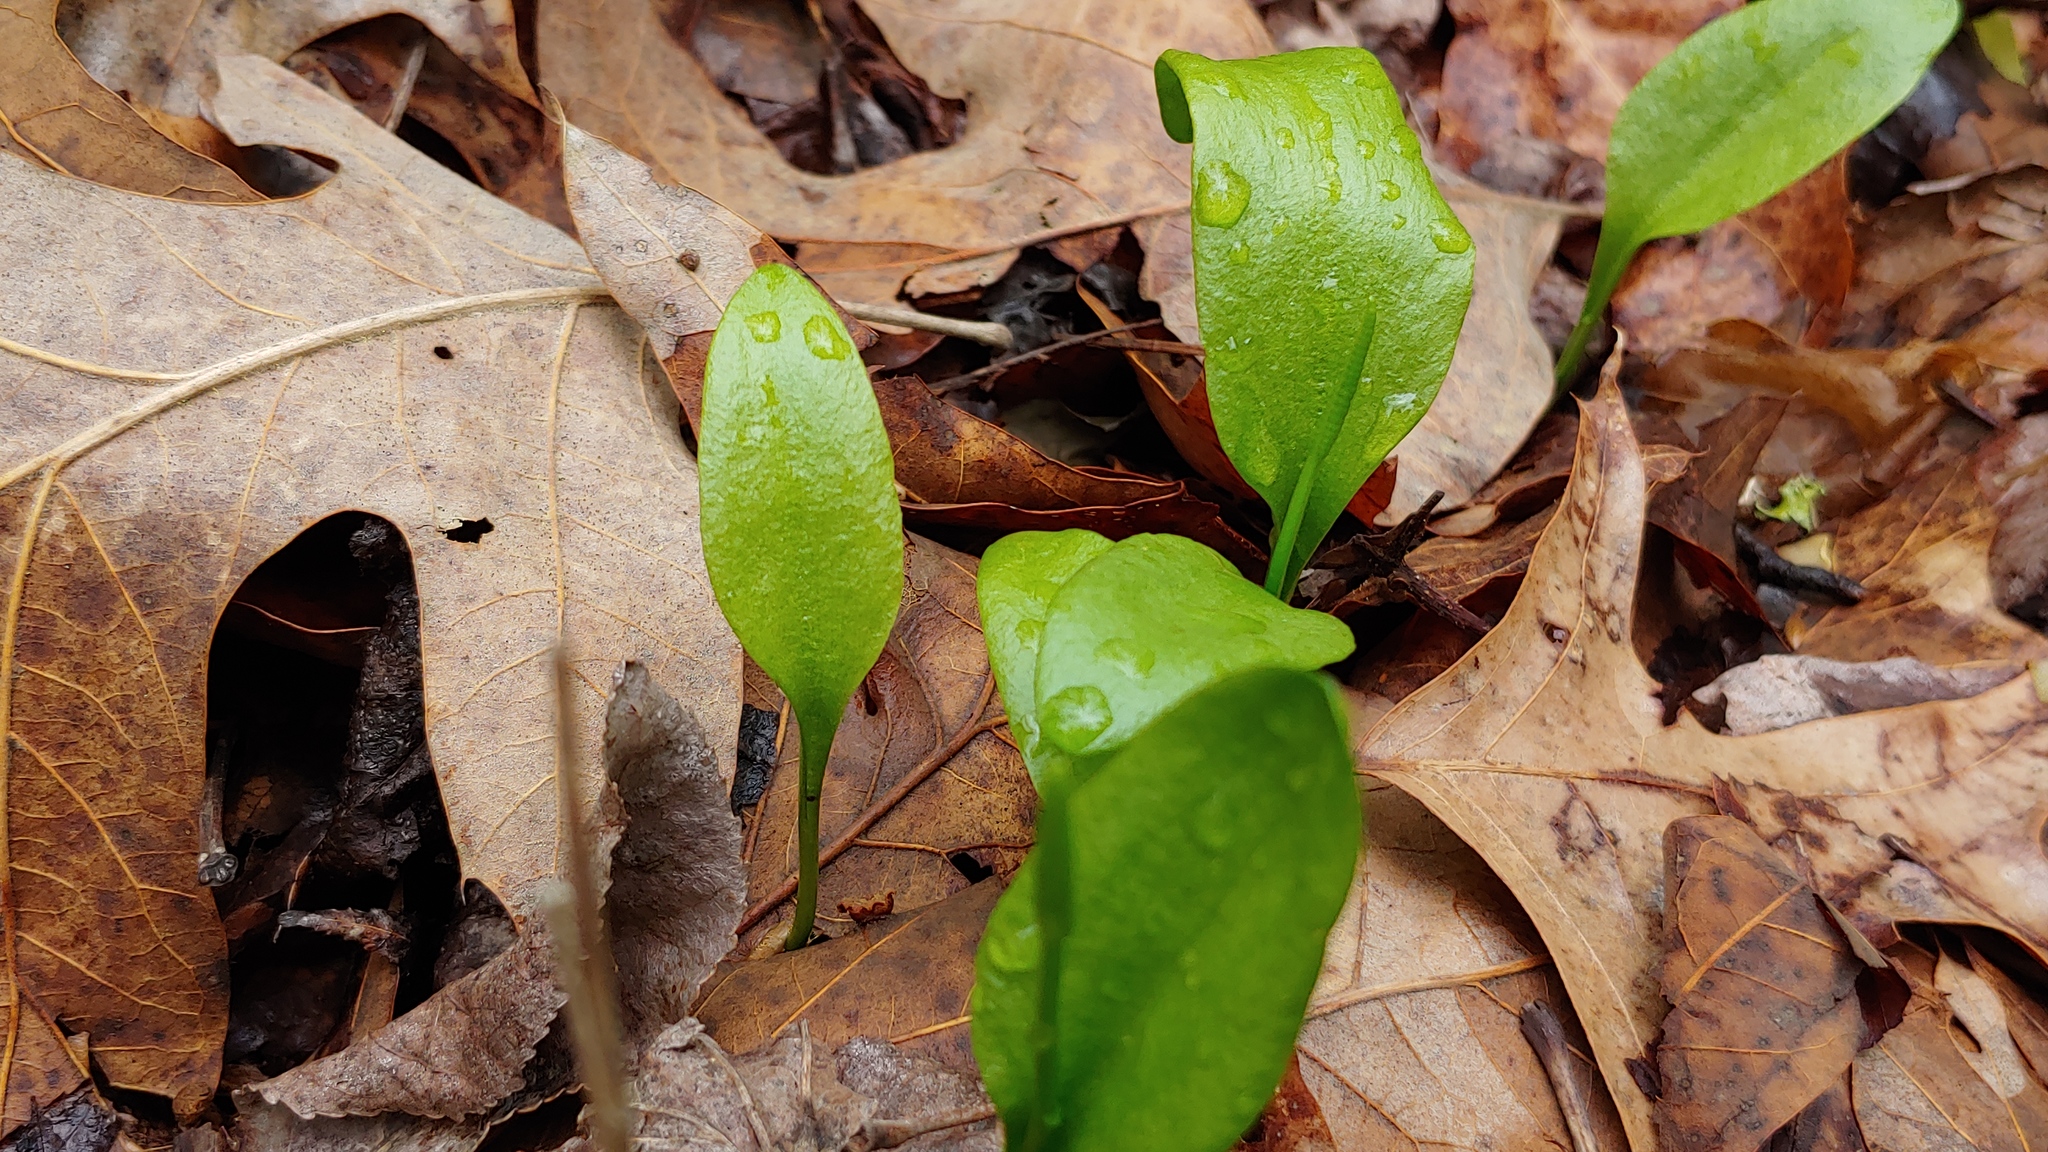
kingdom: Plantae
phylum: Tracheophyta
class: Polypodiopsida
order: Ophioglossales
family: Ophioglossaceae
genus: Ophioglossum
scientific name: Ophioglossum vulgatum
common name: Adder's-tongue
